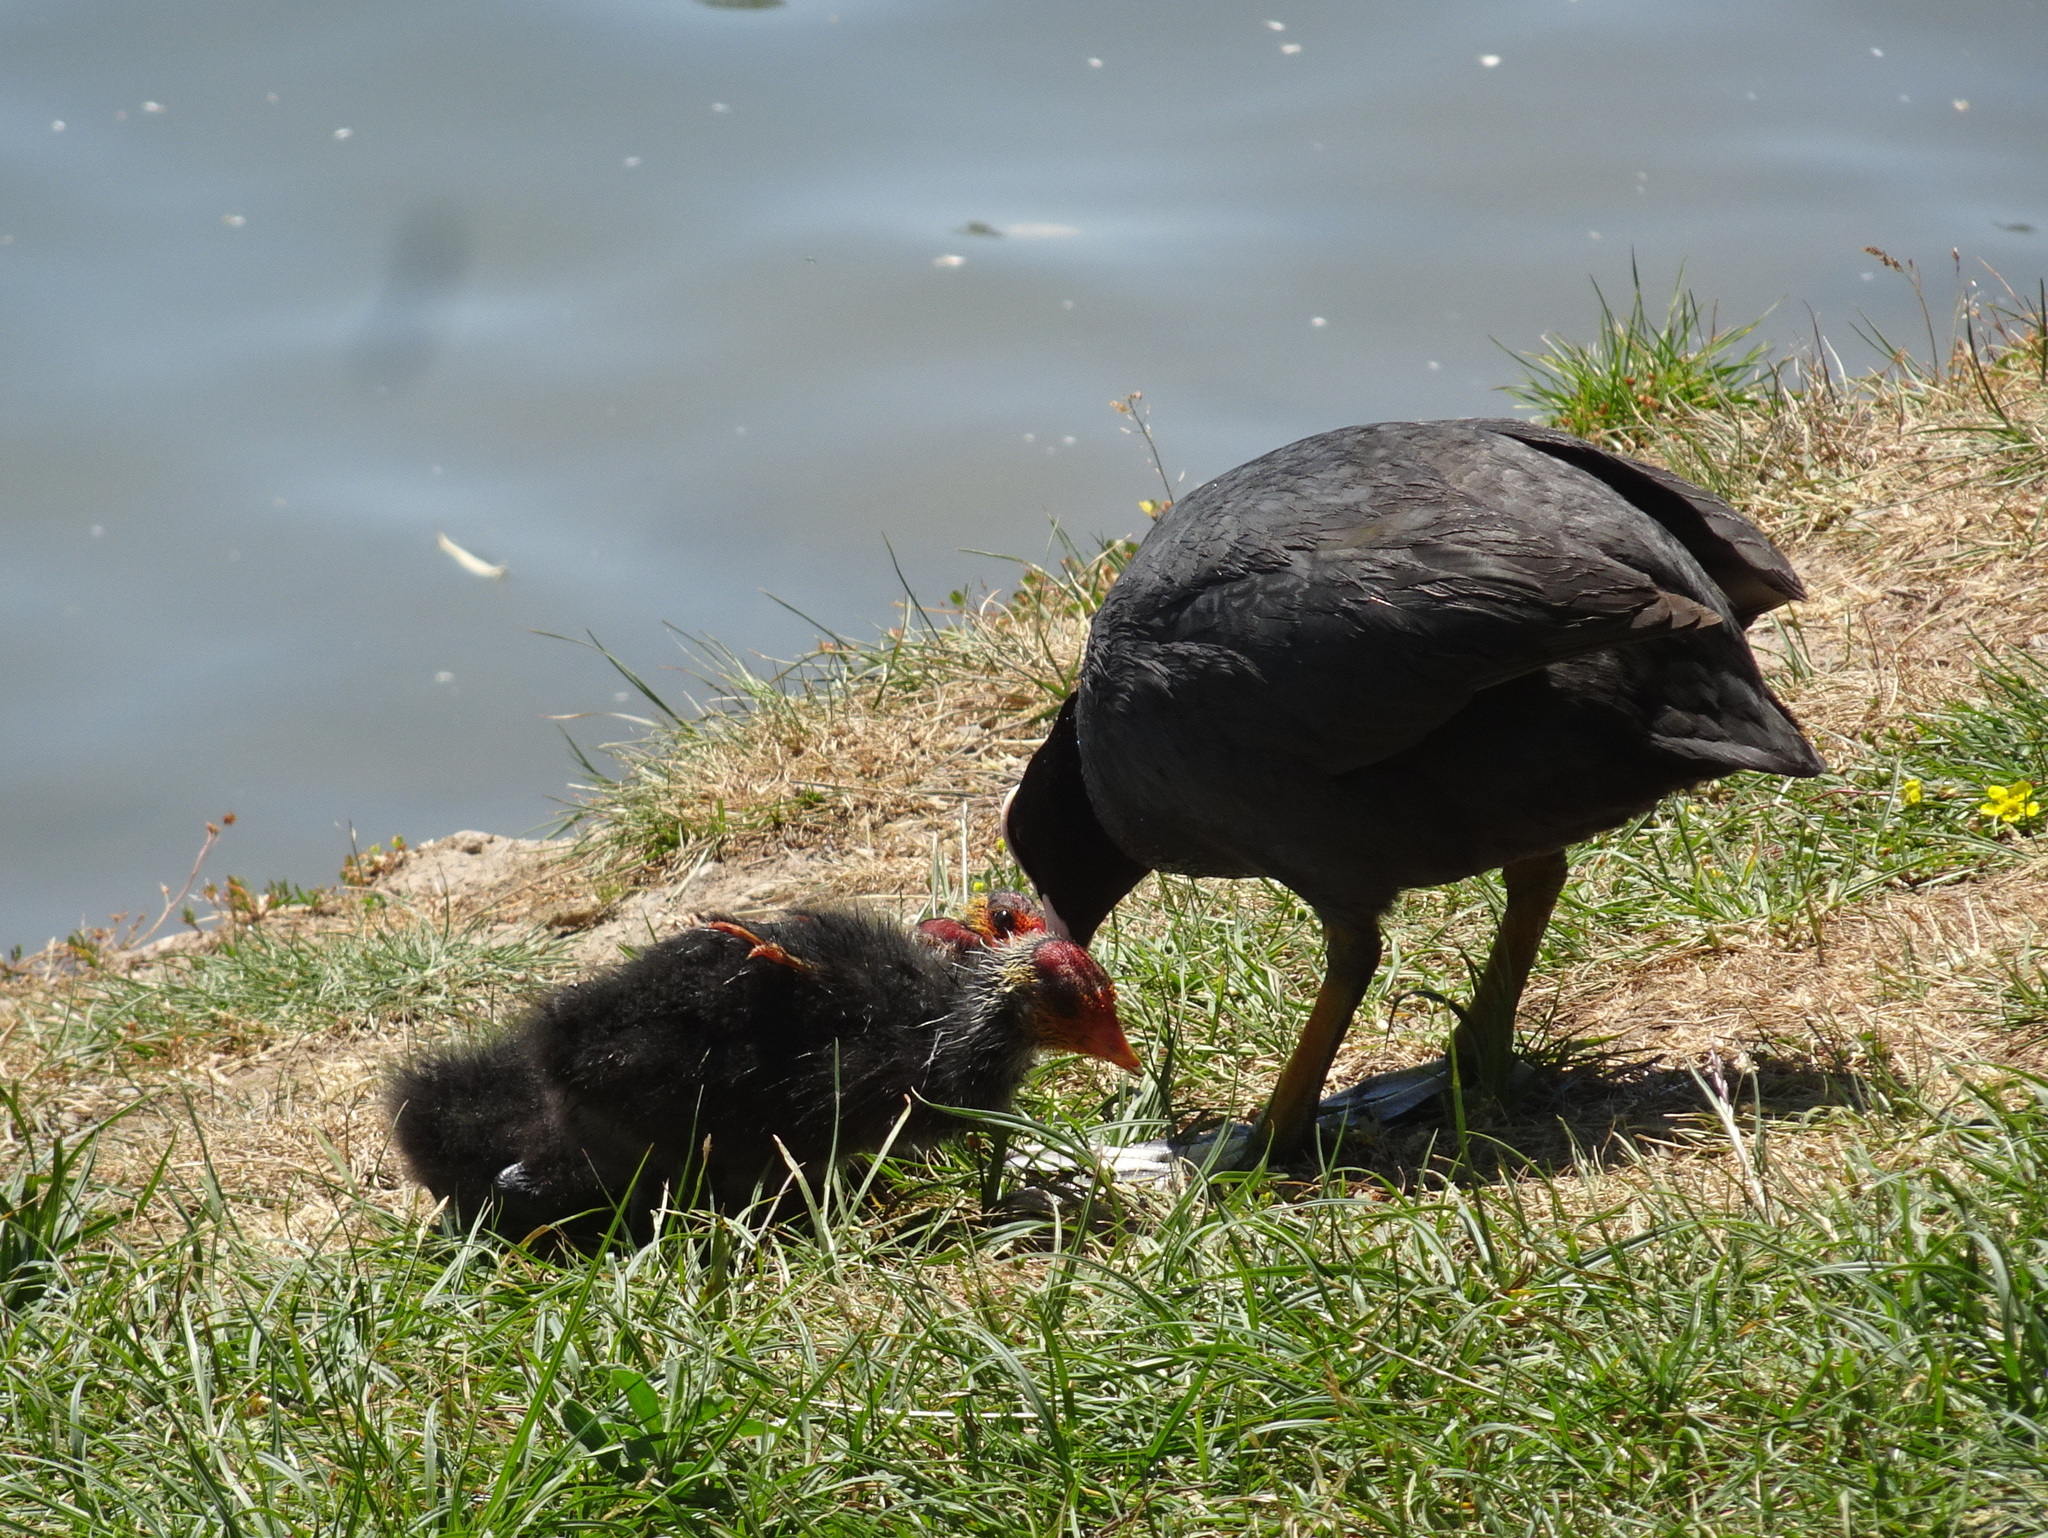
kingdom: Animalia
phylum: Chordata
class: Aves
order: Gruiformes
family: Rallidae
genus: Fulica
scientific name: Fulica atra
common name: Eurasian coot
